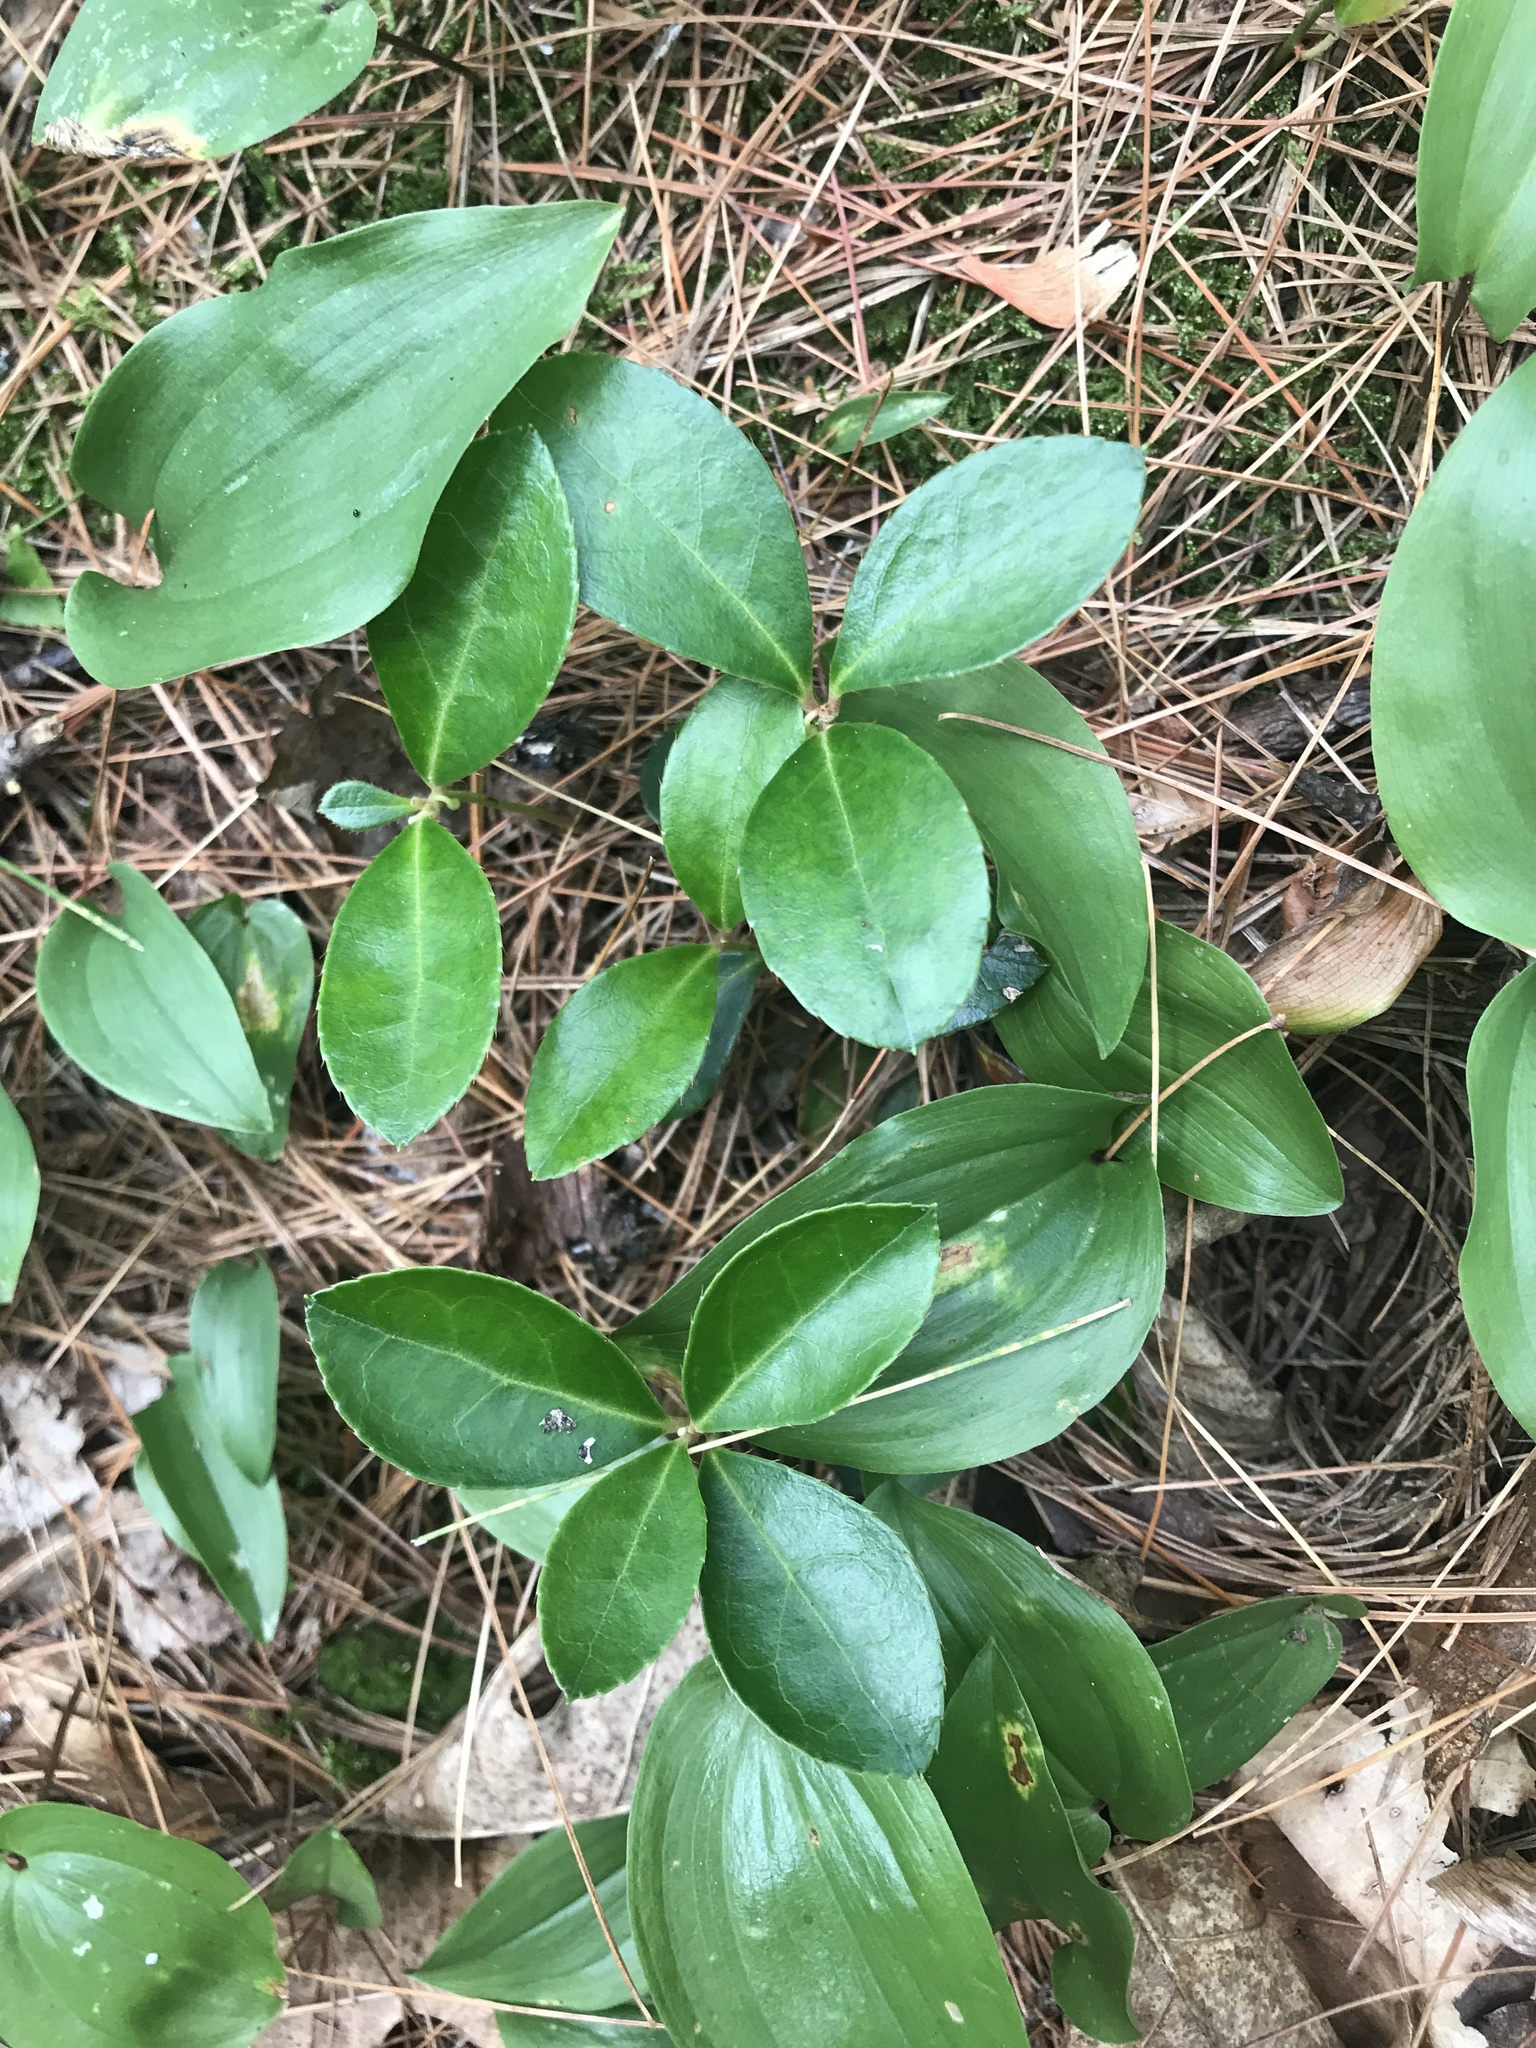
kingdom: Plantae
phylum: Tracheophyta
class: Magnoliopsida
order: Ericales
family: Ericaceae
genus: Gaultheria
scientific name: Gaultheria procumbens
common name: Checkerberry
